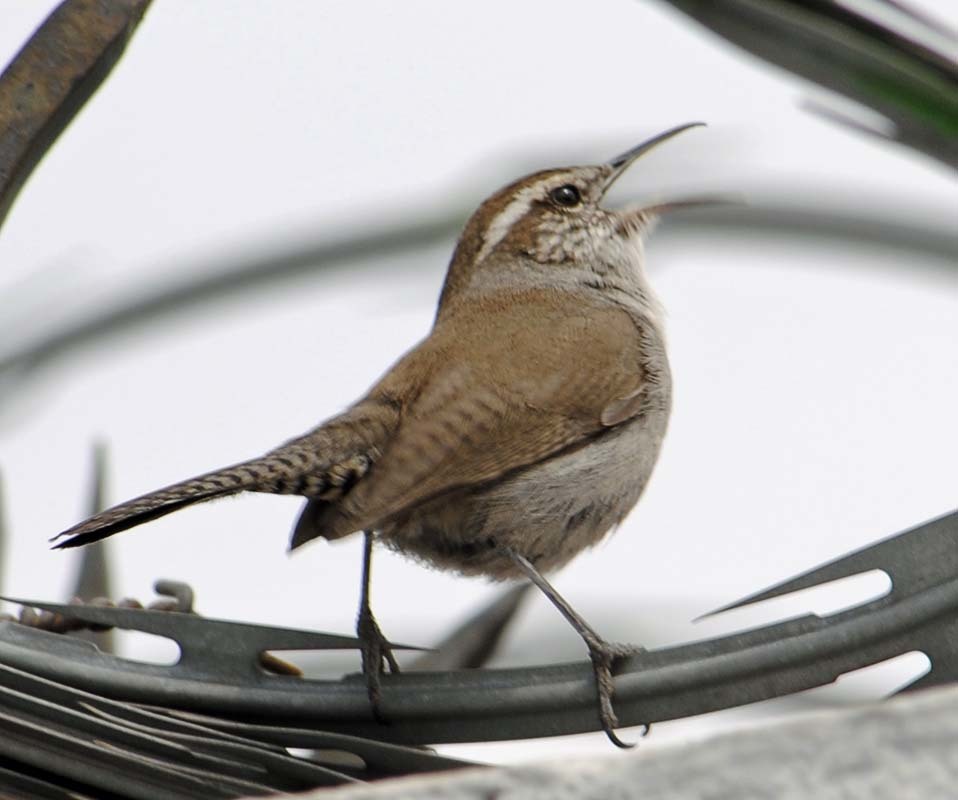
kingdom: Animalia
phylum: Chordata
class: Aves
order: Passeriformes
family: Troglodytidae
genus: Thryomanes
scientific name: Thryomanes bewickii
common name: Bewick's wren
